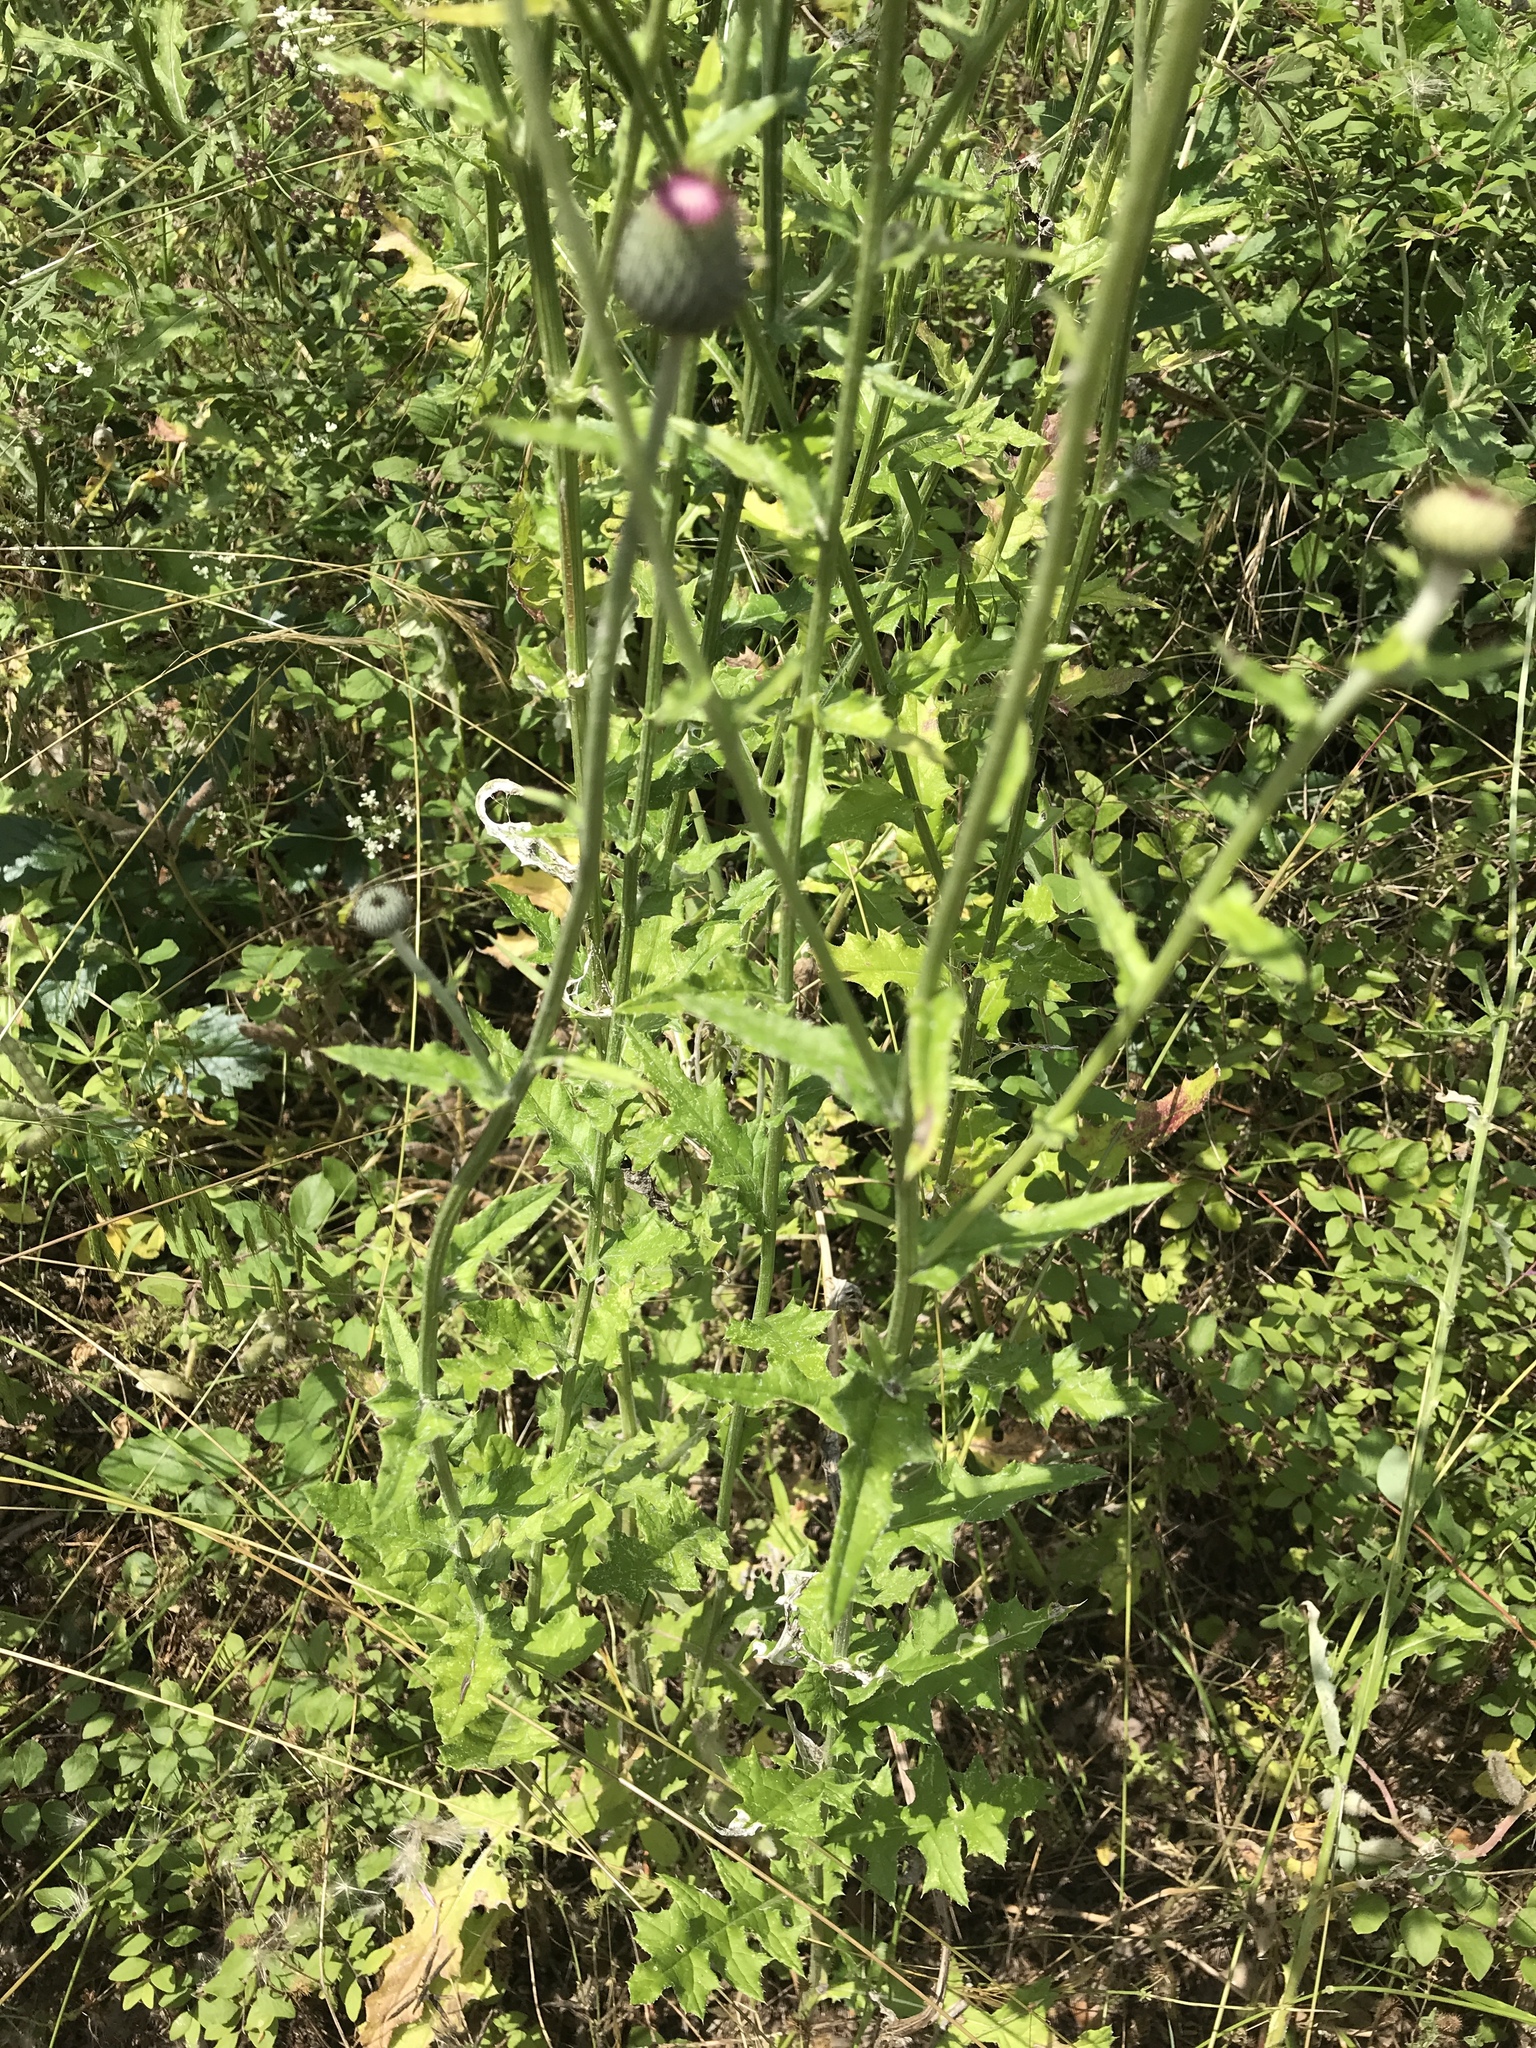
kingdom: Plantae
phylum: Tracheophyta
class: Magnoliopsida
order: Asterales
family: Asteraceae
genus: Cirsium
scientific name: Cirsium texanum
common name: Texas purple thistle
